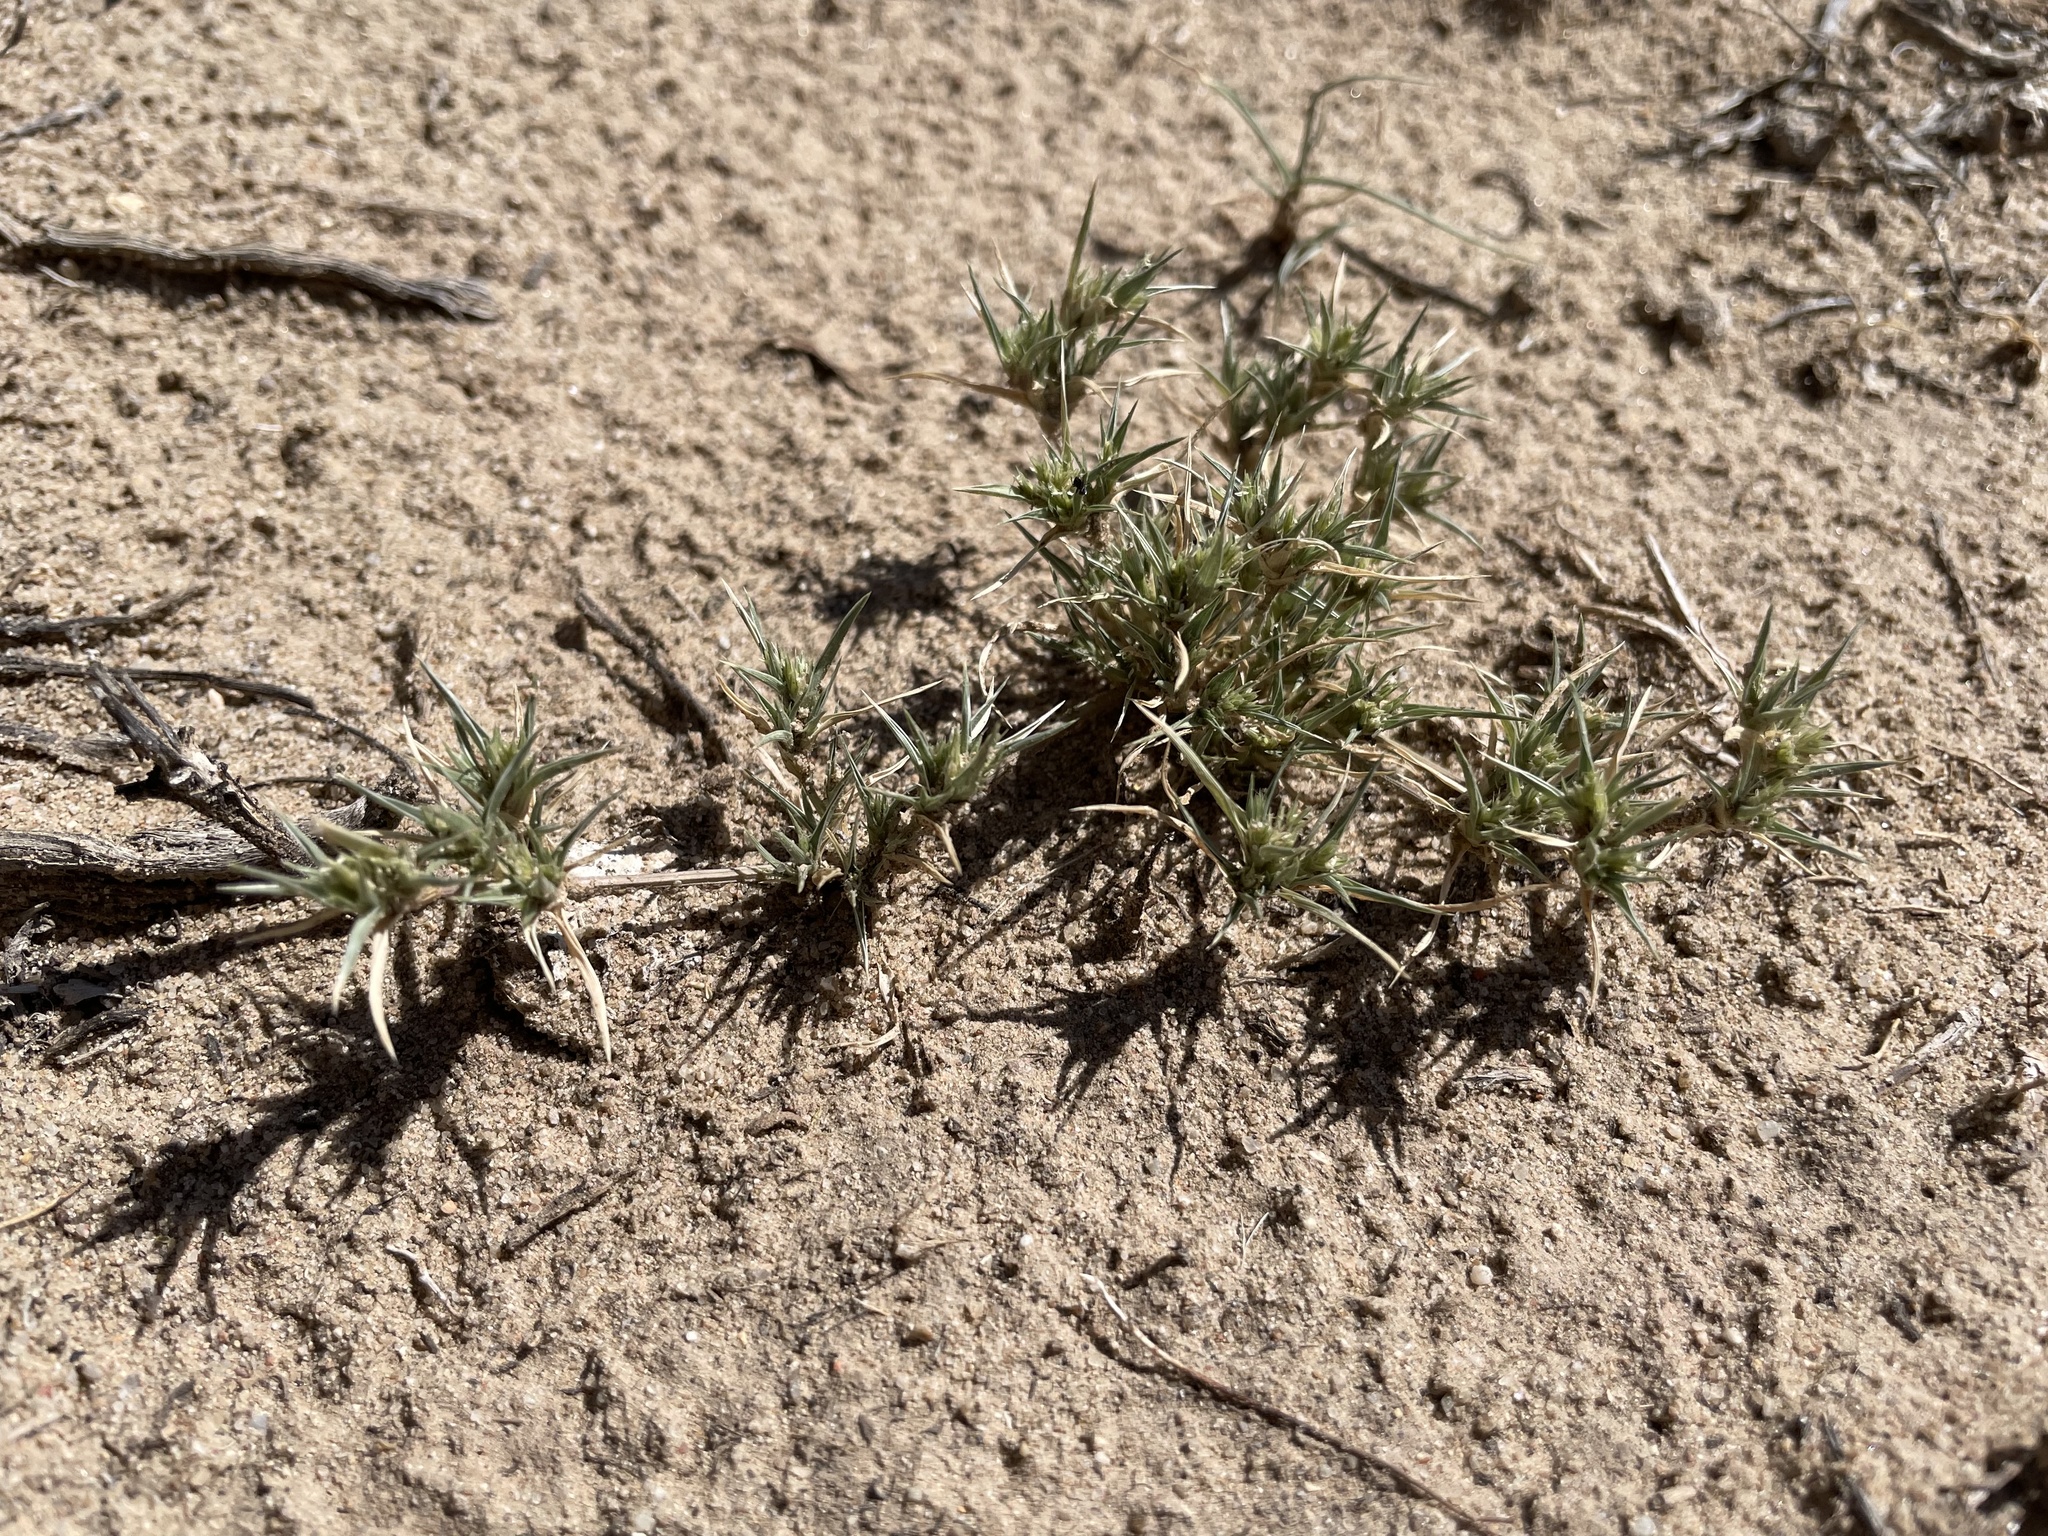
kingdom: Plantae
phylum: Tracheophyta
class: Liliopsida
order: Poales
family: Poaceae
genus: Munroa
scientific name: Munroa squarrosa
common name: False buffalo grass
